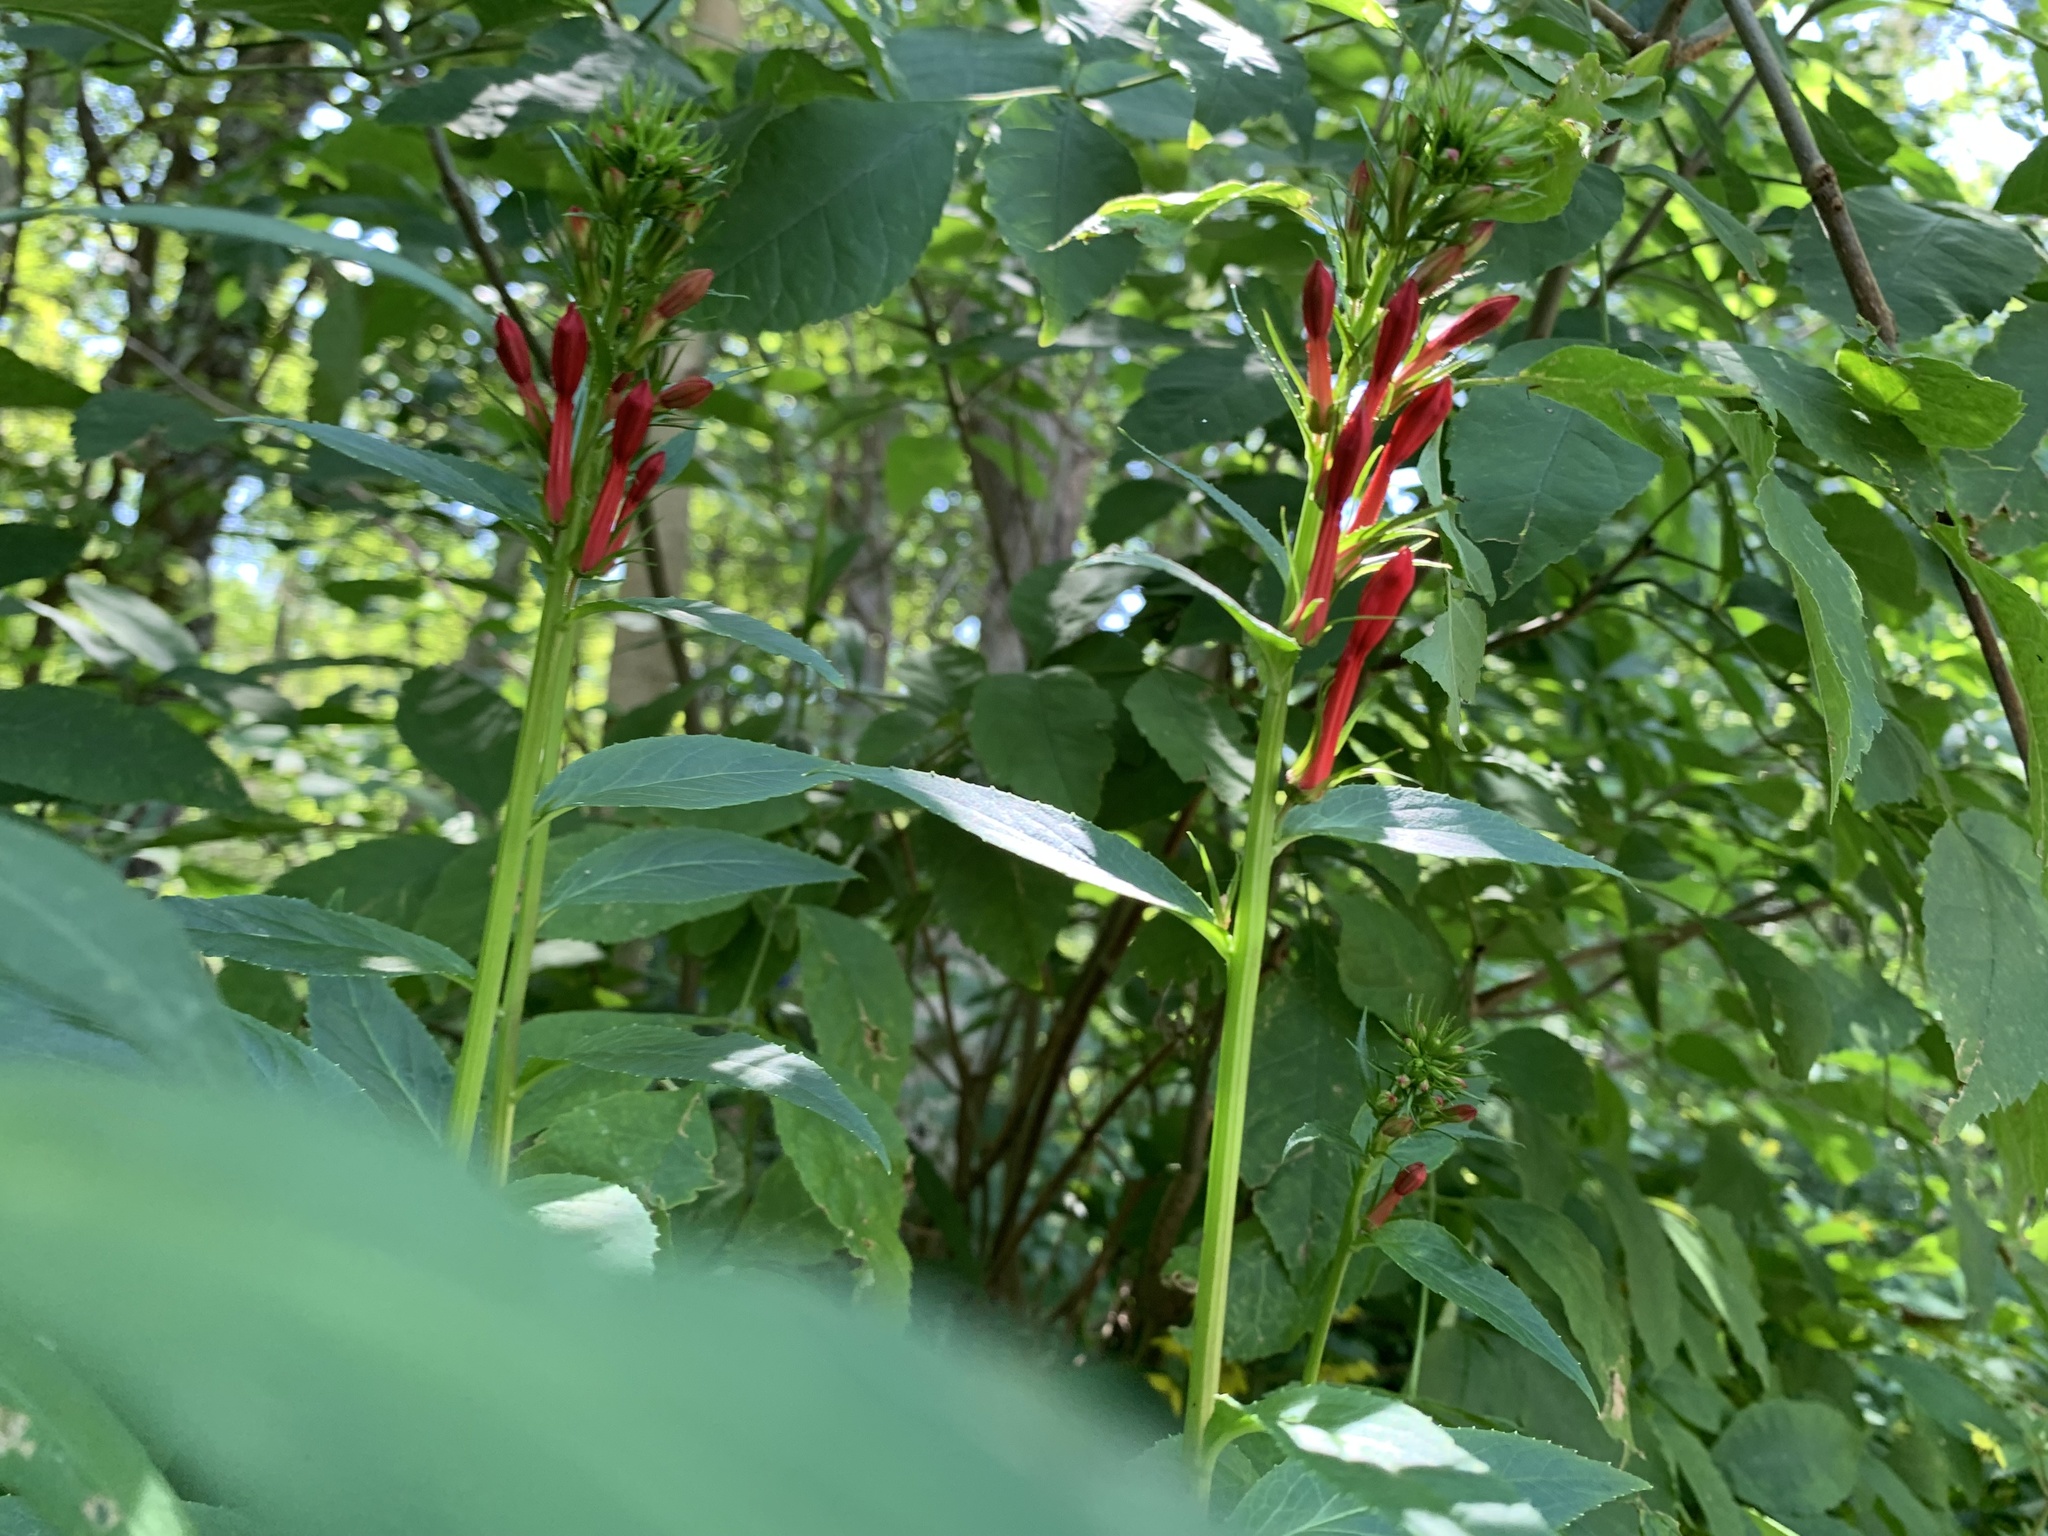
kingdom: Plantae
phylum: Tracheophyta
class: Magnoliopsida
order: Asterales
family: Campanulaceae
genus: Lobelia
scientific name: Lobelia cardinalis
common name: Cardinal flower
